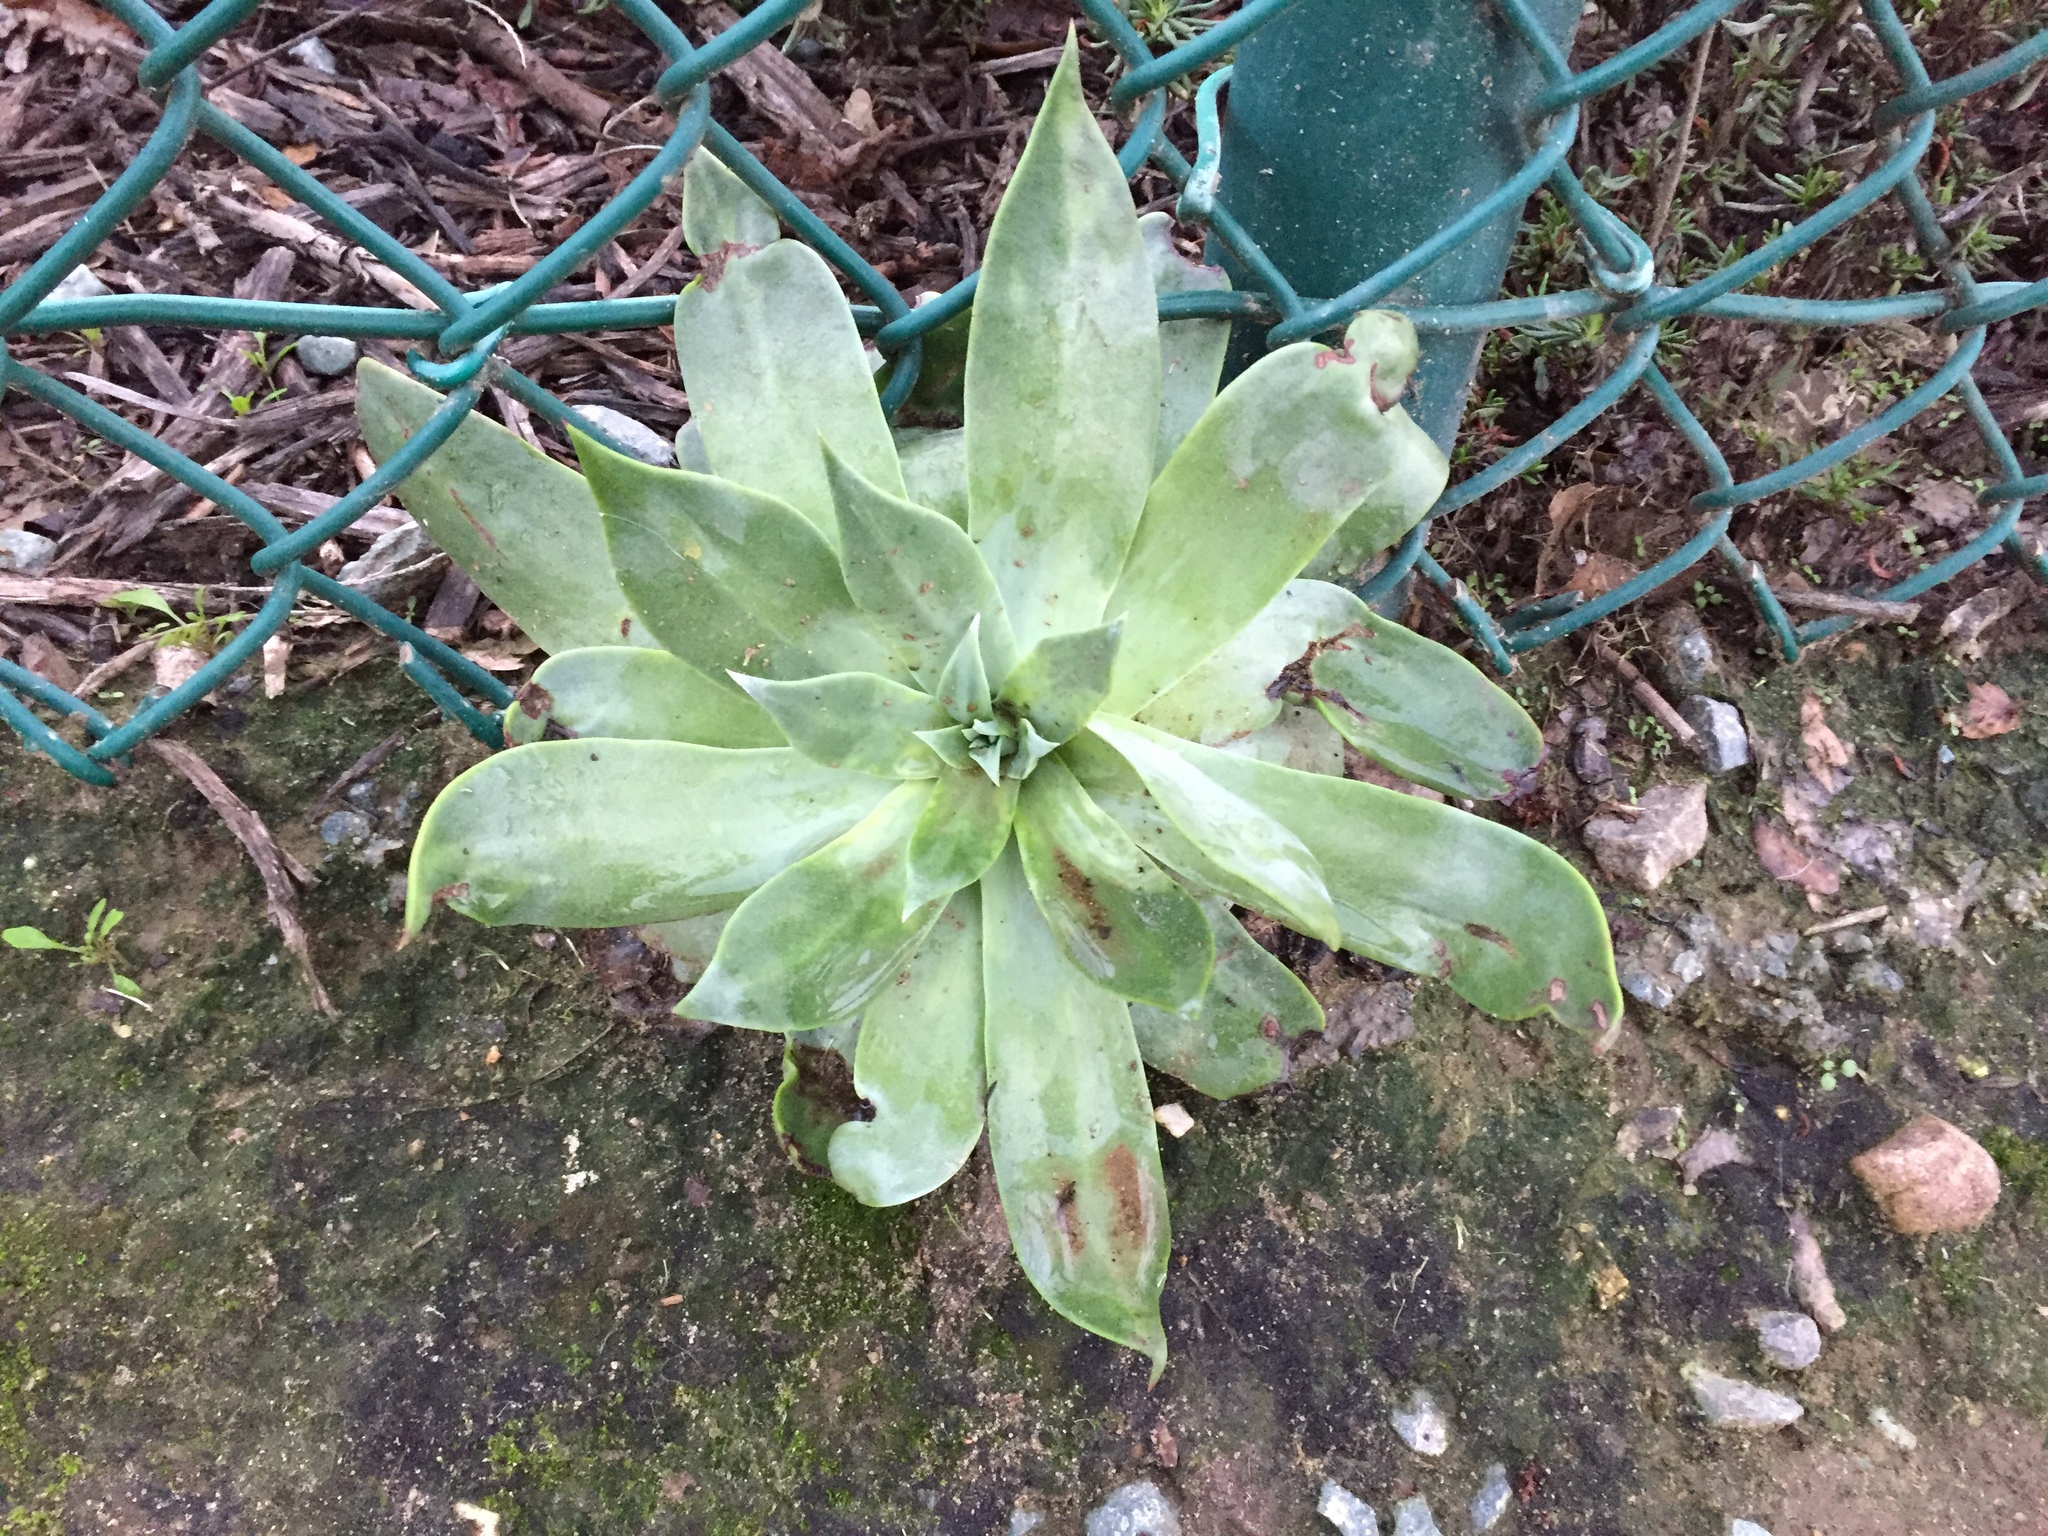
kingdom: Plantae
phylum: Tracheophyta
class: Magnoliopsida
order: Saxifragales
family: Crassulaceae
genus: Dudleya
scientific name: Dudleya pulverulenta
